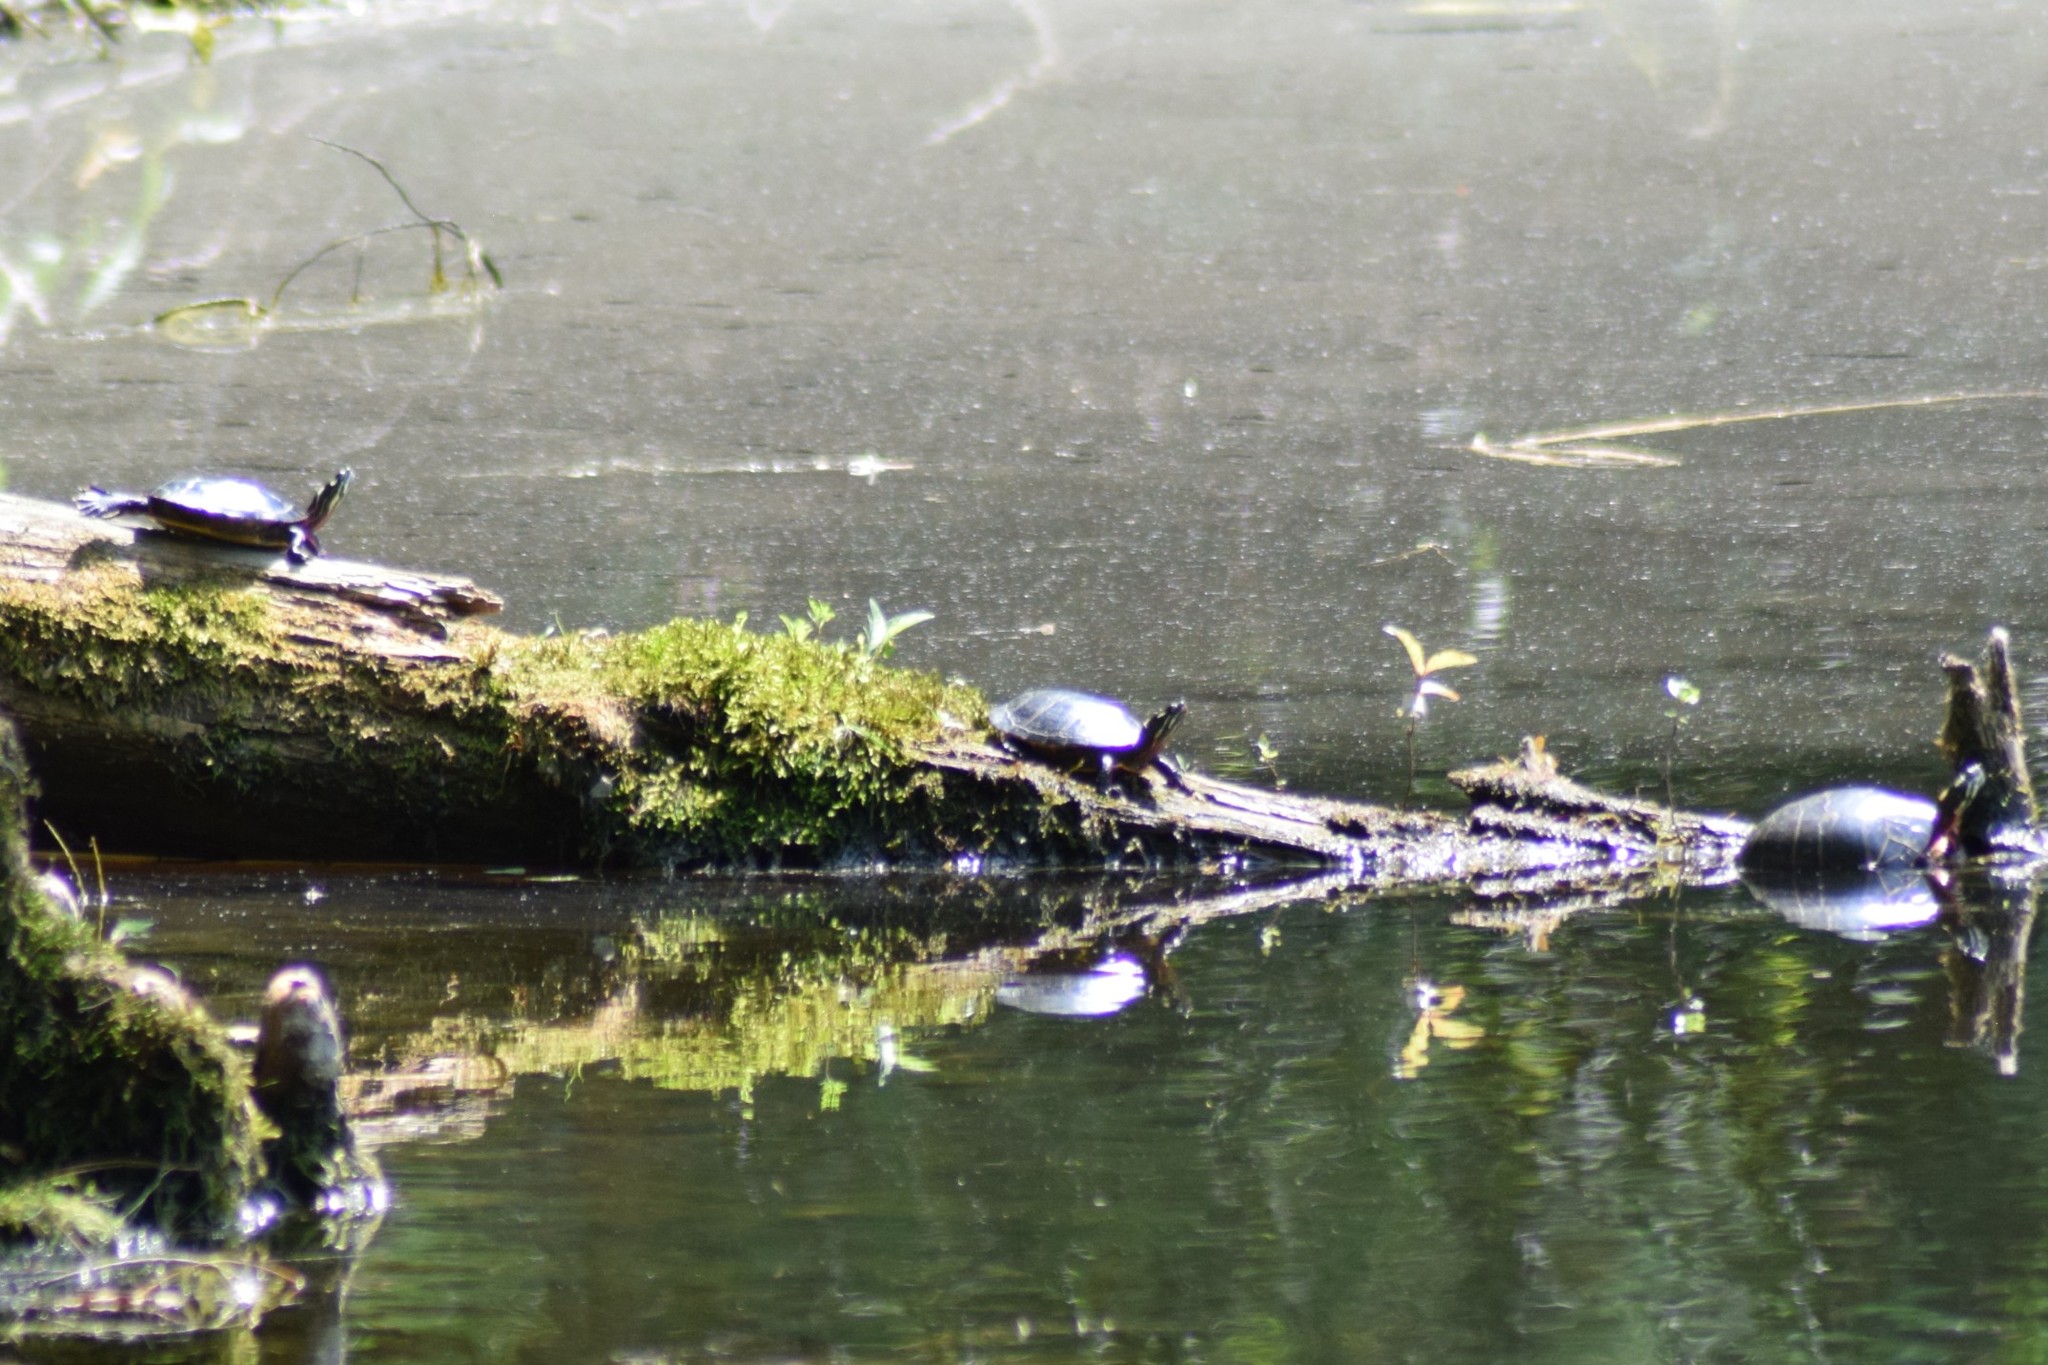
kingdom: Animalia
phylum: Chordata
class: Testudines
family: Emydidae
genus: Chrysemys
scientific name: Chrysemys picta
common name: Painted turtle
